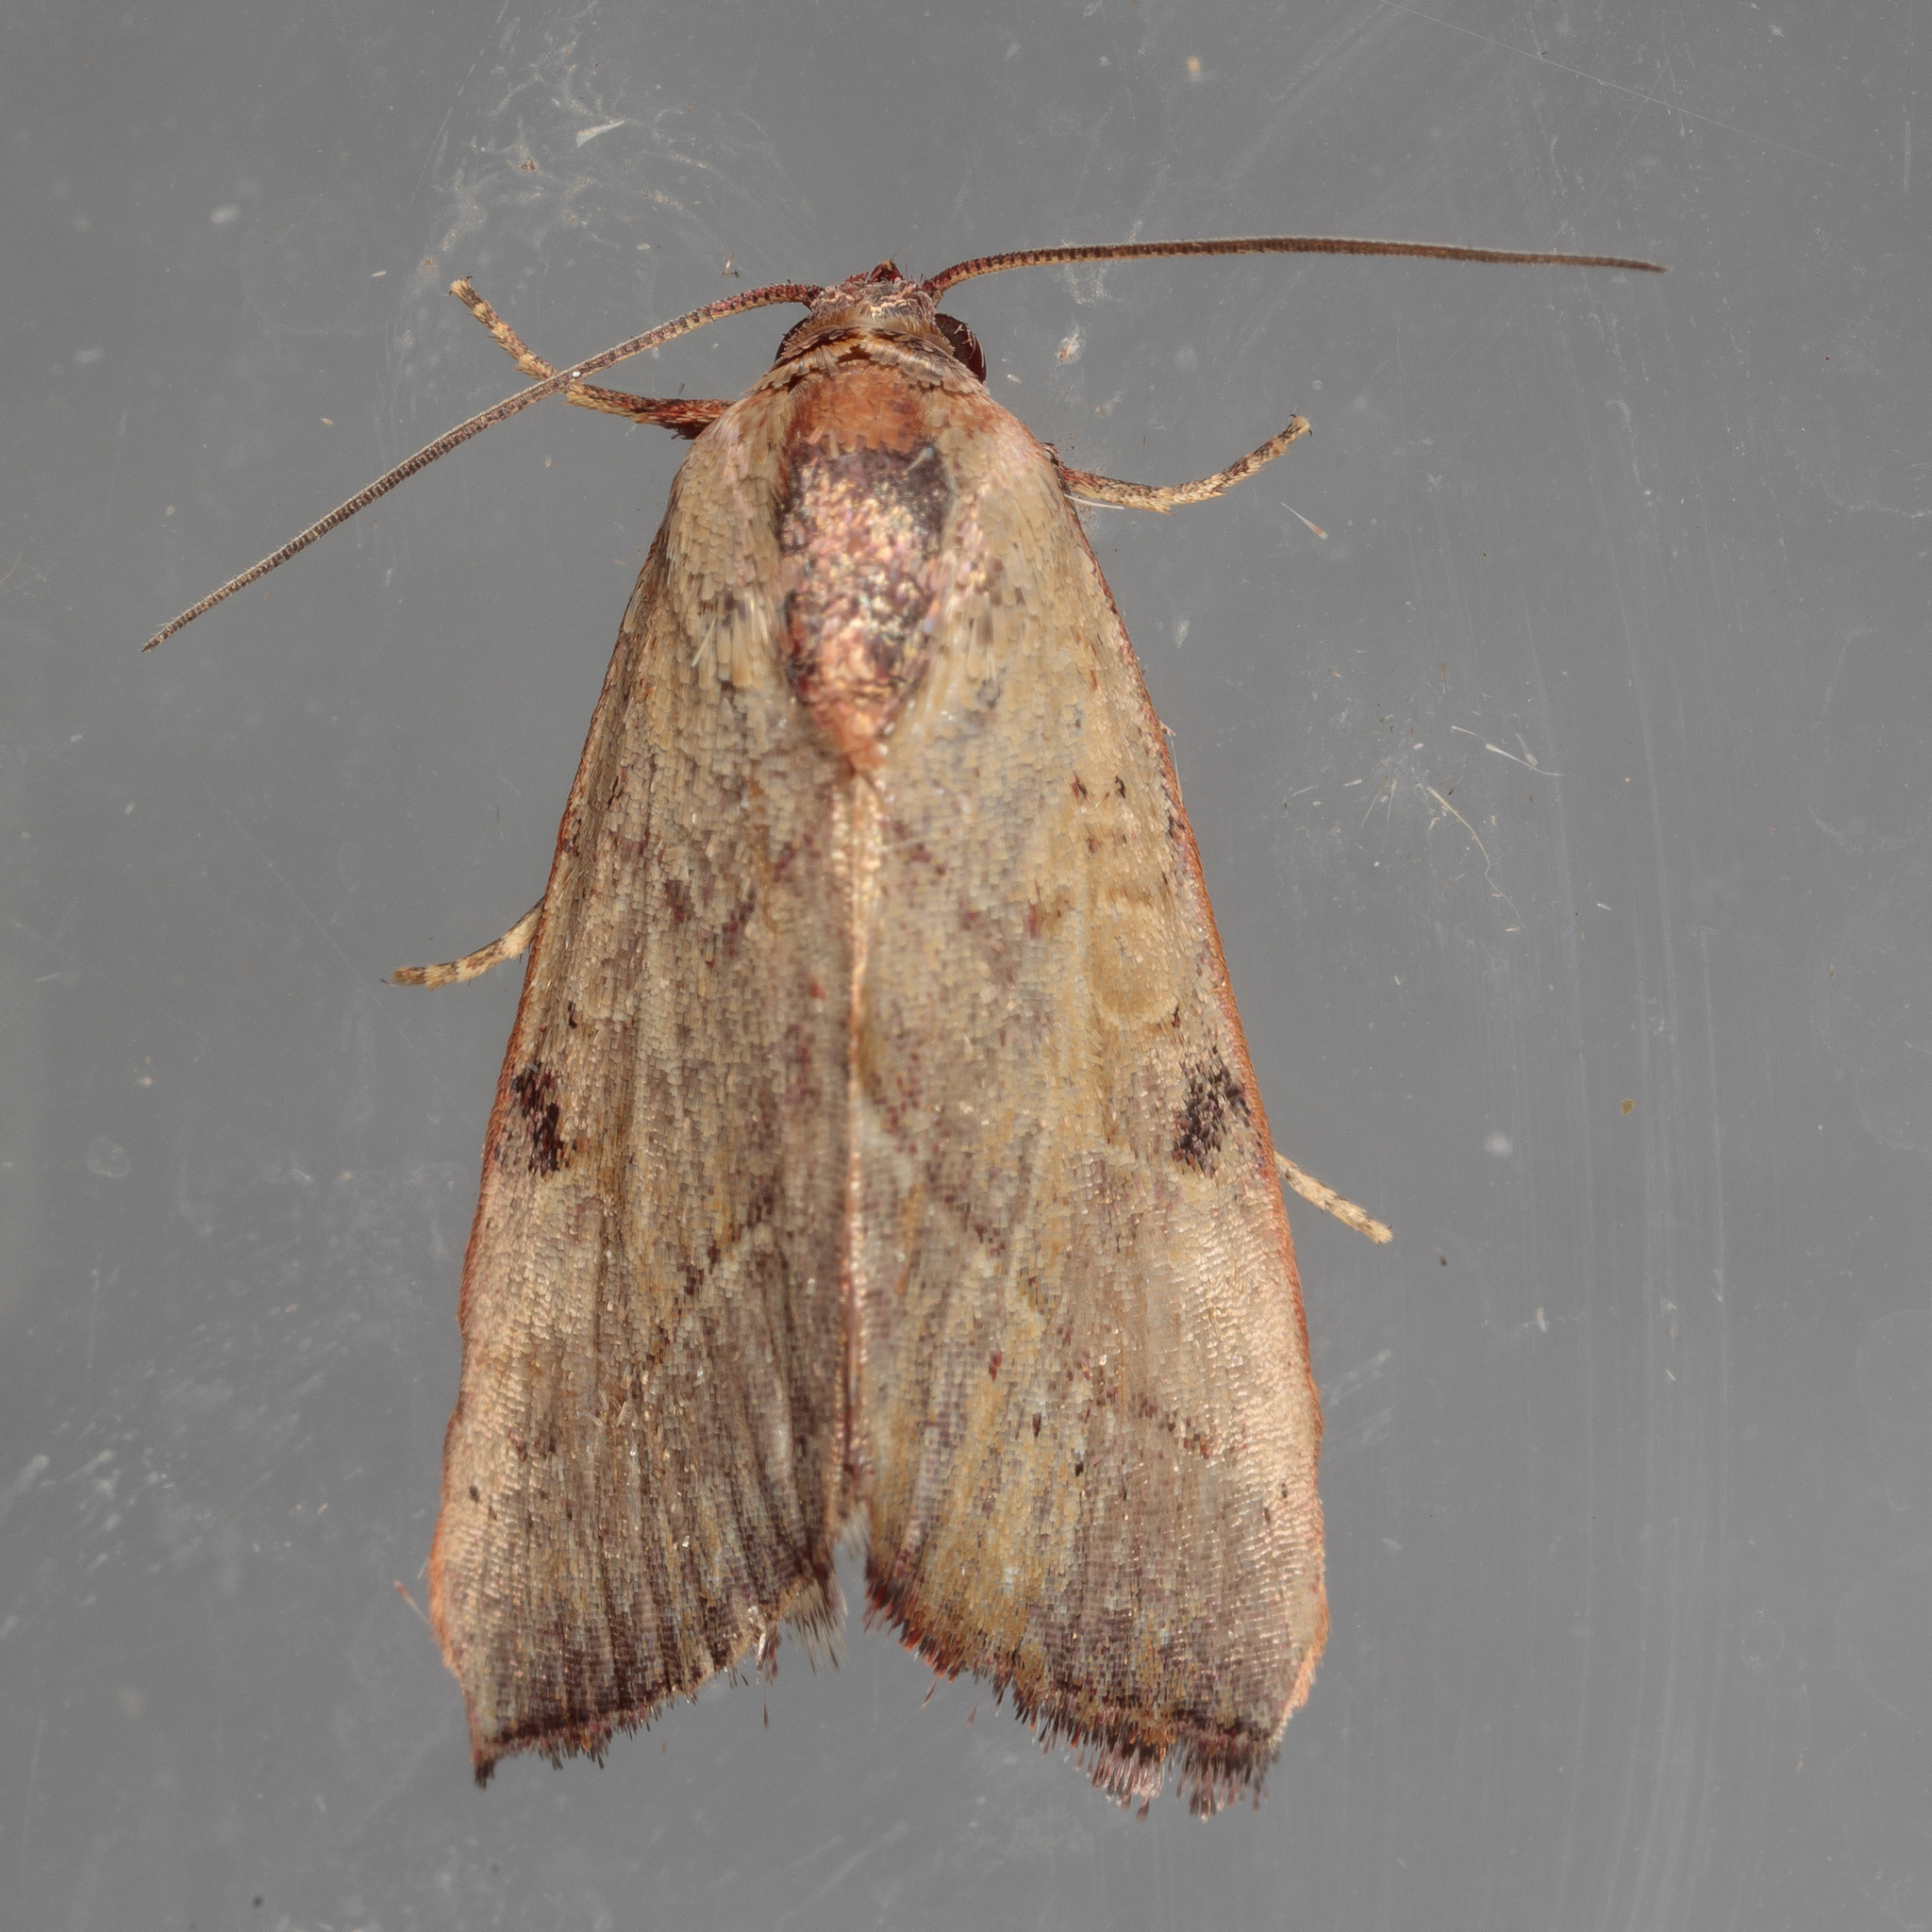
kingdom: Animalia
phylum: Arthropoda
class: Insecta
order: Lepidoptera
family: Noctuidae
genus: Galgula
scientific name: Galgula partita
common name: Wedgeling
